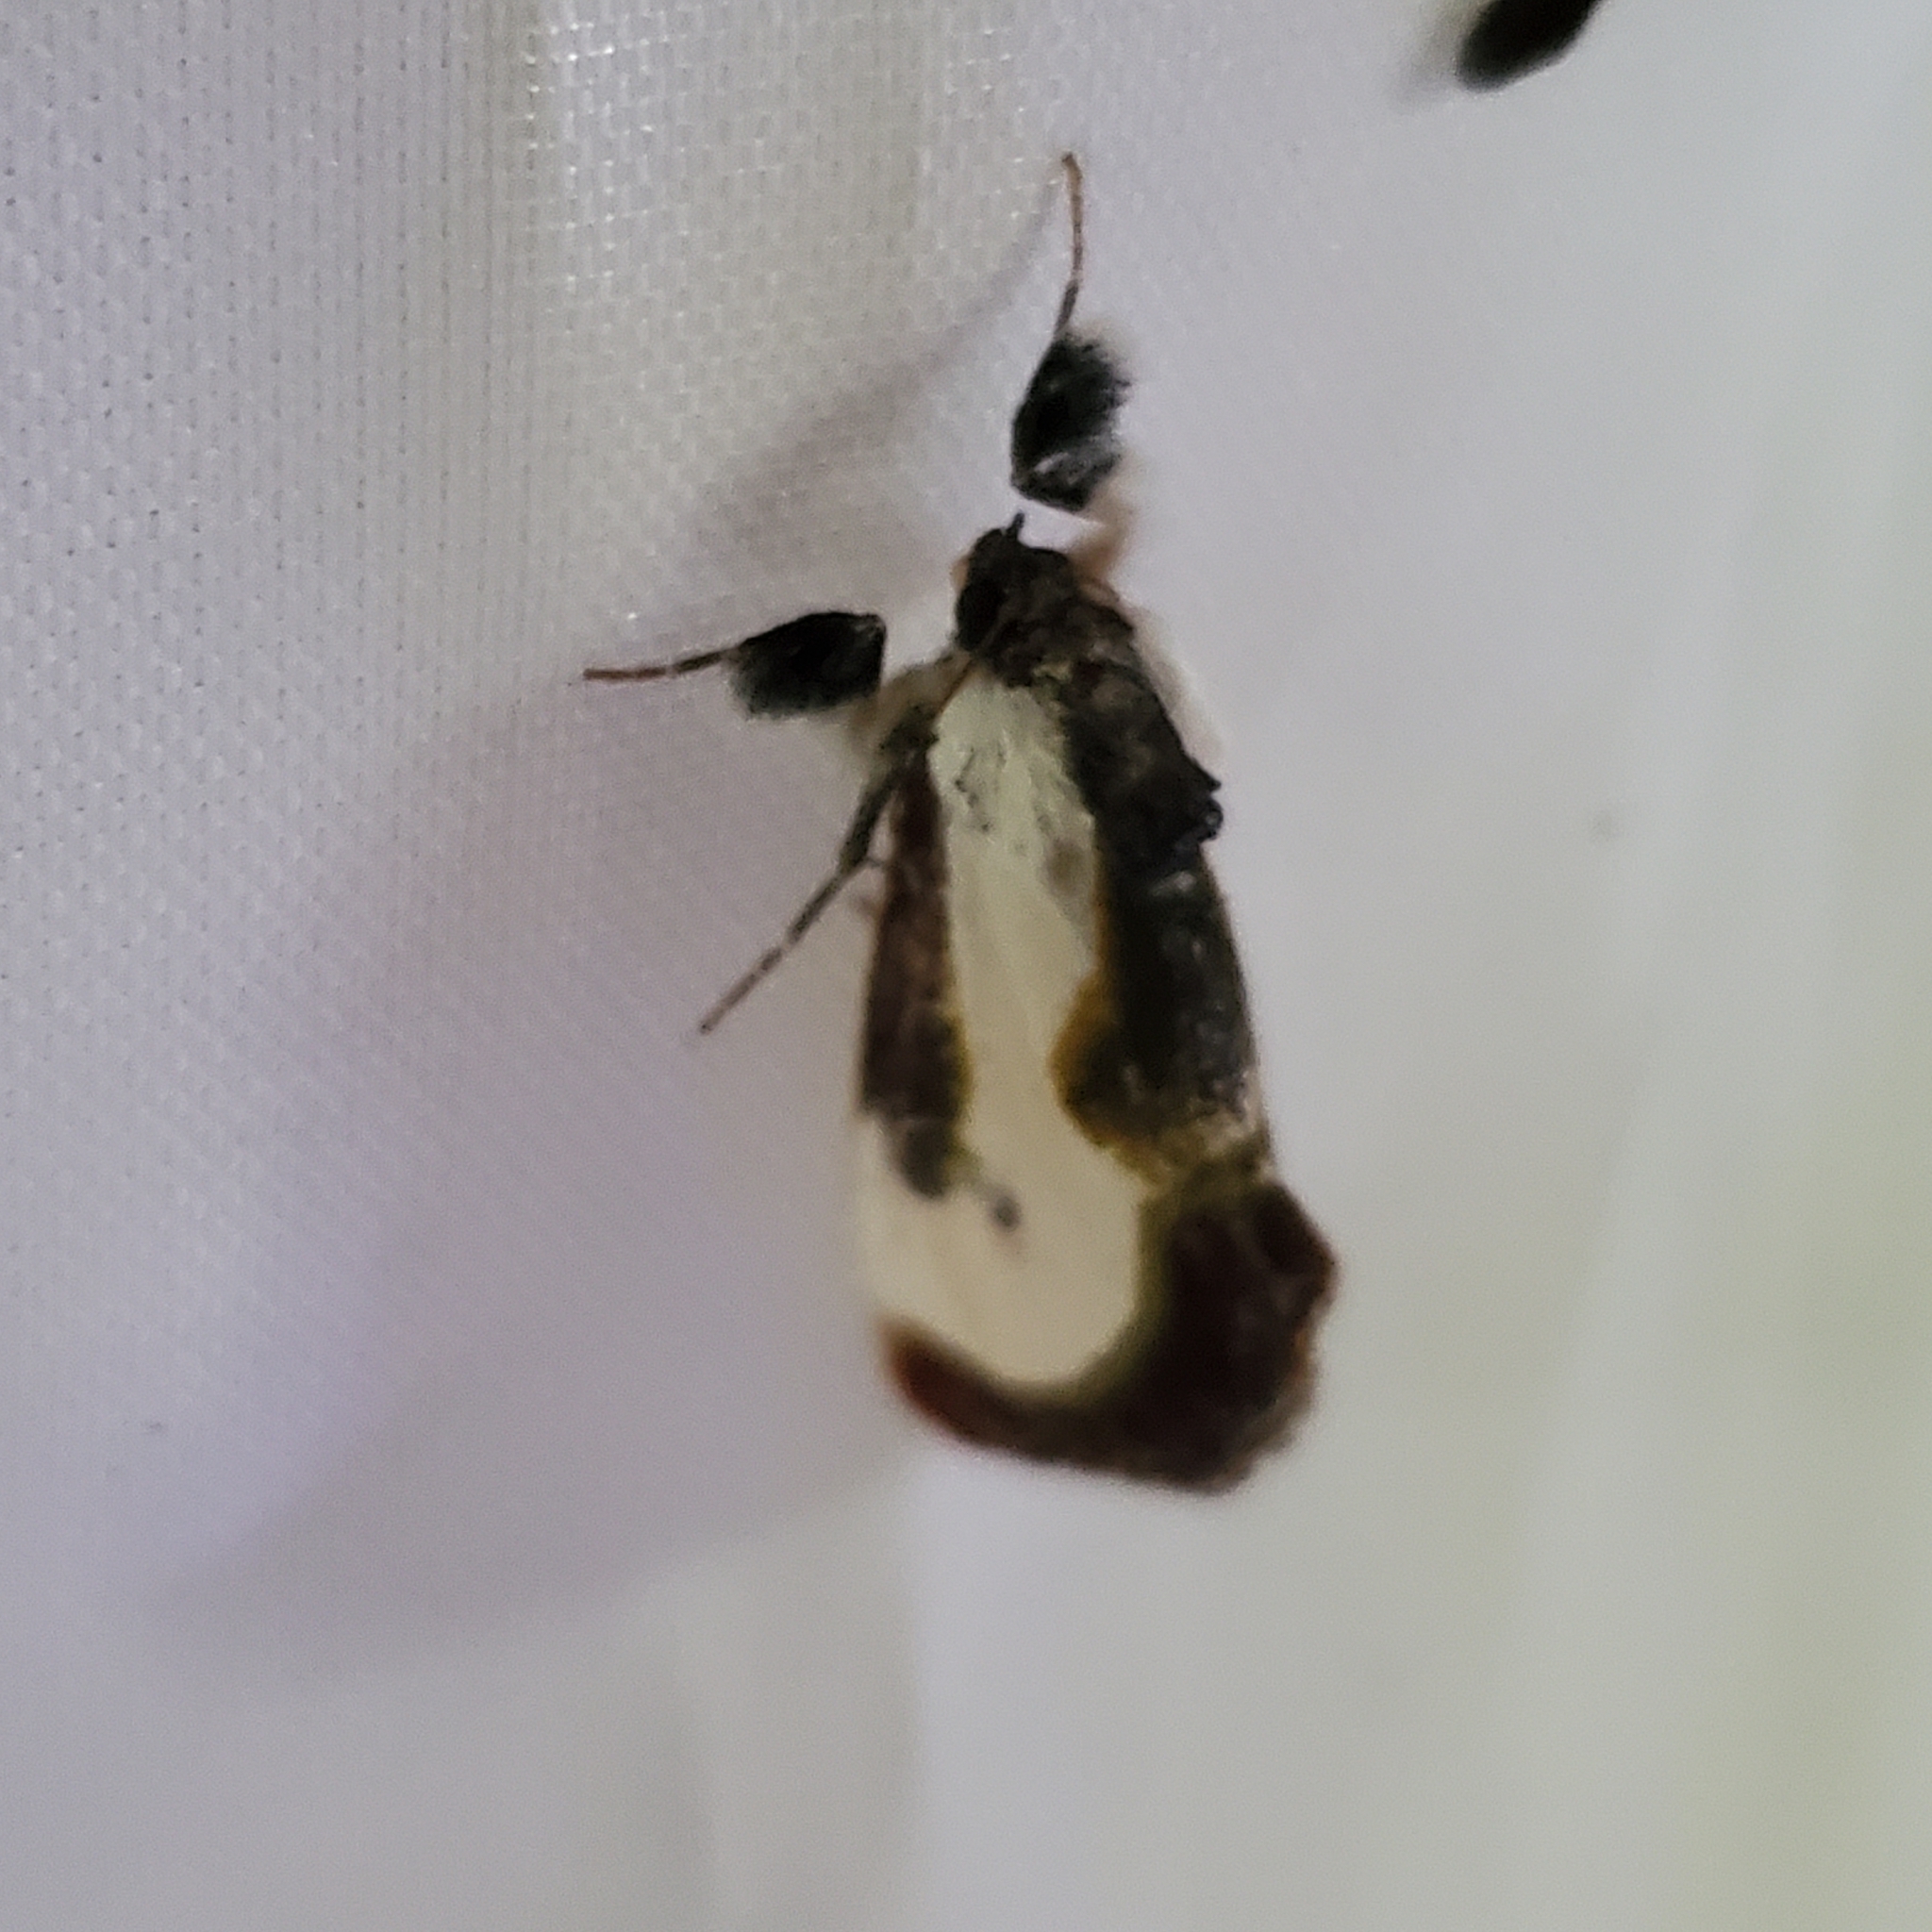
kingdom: Animalia
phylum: Arthropoda
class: Insecta
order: Lepidoptera
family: Noctuidae
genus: Eudryas
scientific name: Eudryas grata
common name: Beautiful wood-nymph
